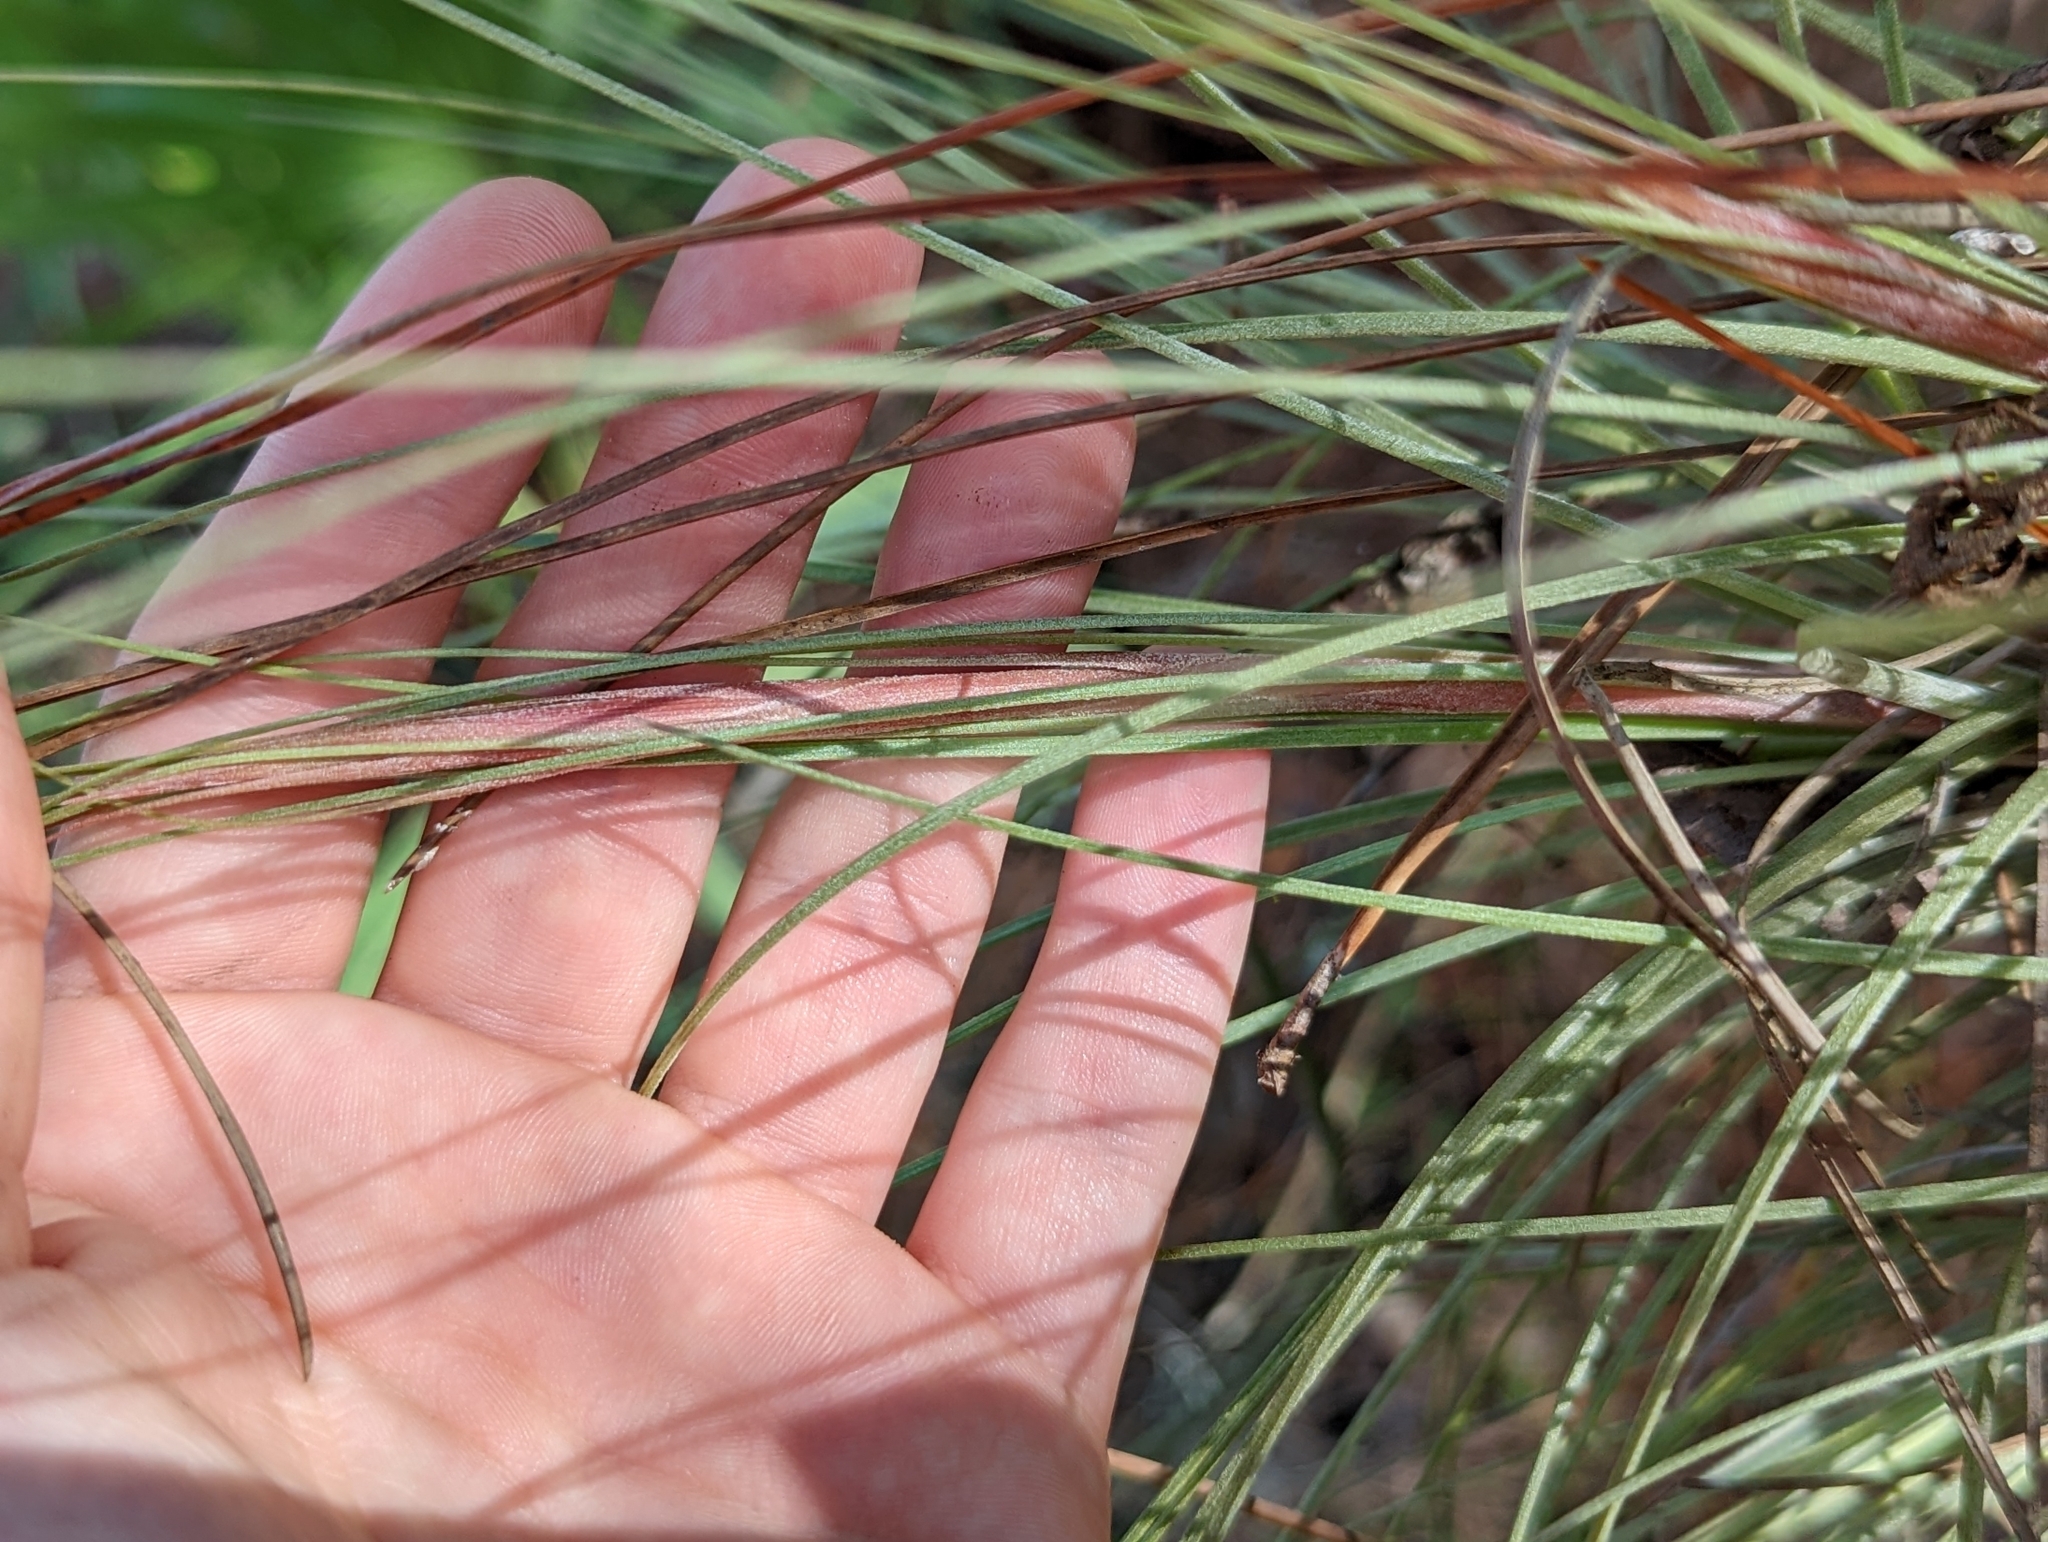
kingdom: Plantae
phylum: Tracheophyta
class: Liliopsida
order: Poales
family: Bromeliaceae
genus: Tillandsia
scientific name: Tillandsia bartramii
